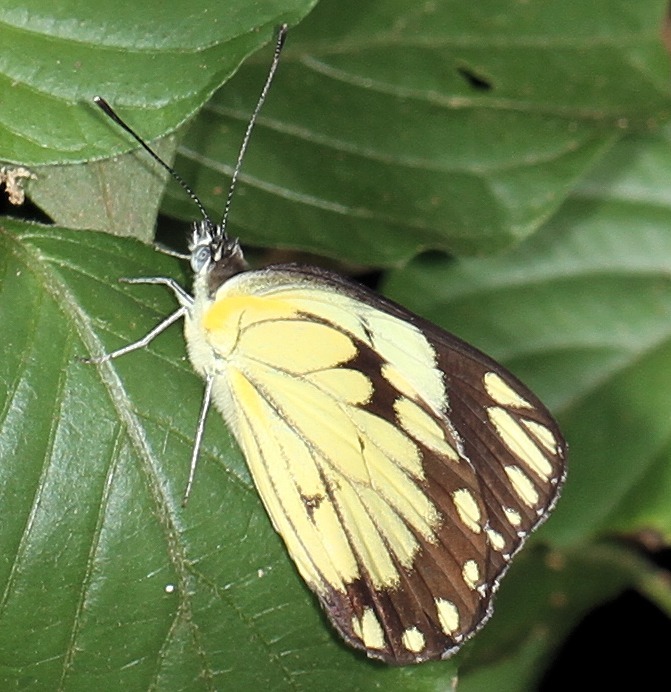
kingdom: Animalia
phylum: Arthropoda
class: Insecta
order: Lepidoptera
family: Pieridae
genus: Belenois
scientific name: Belenois creona
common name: African caper white
